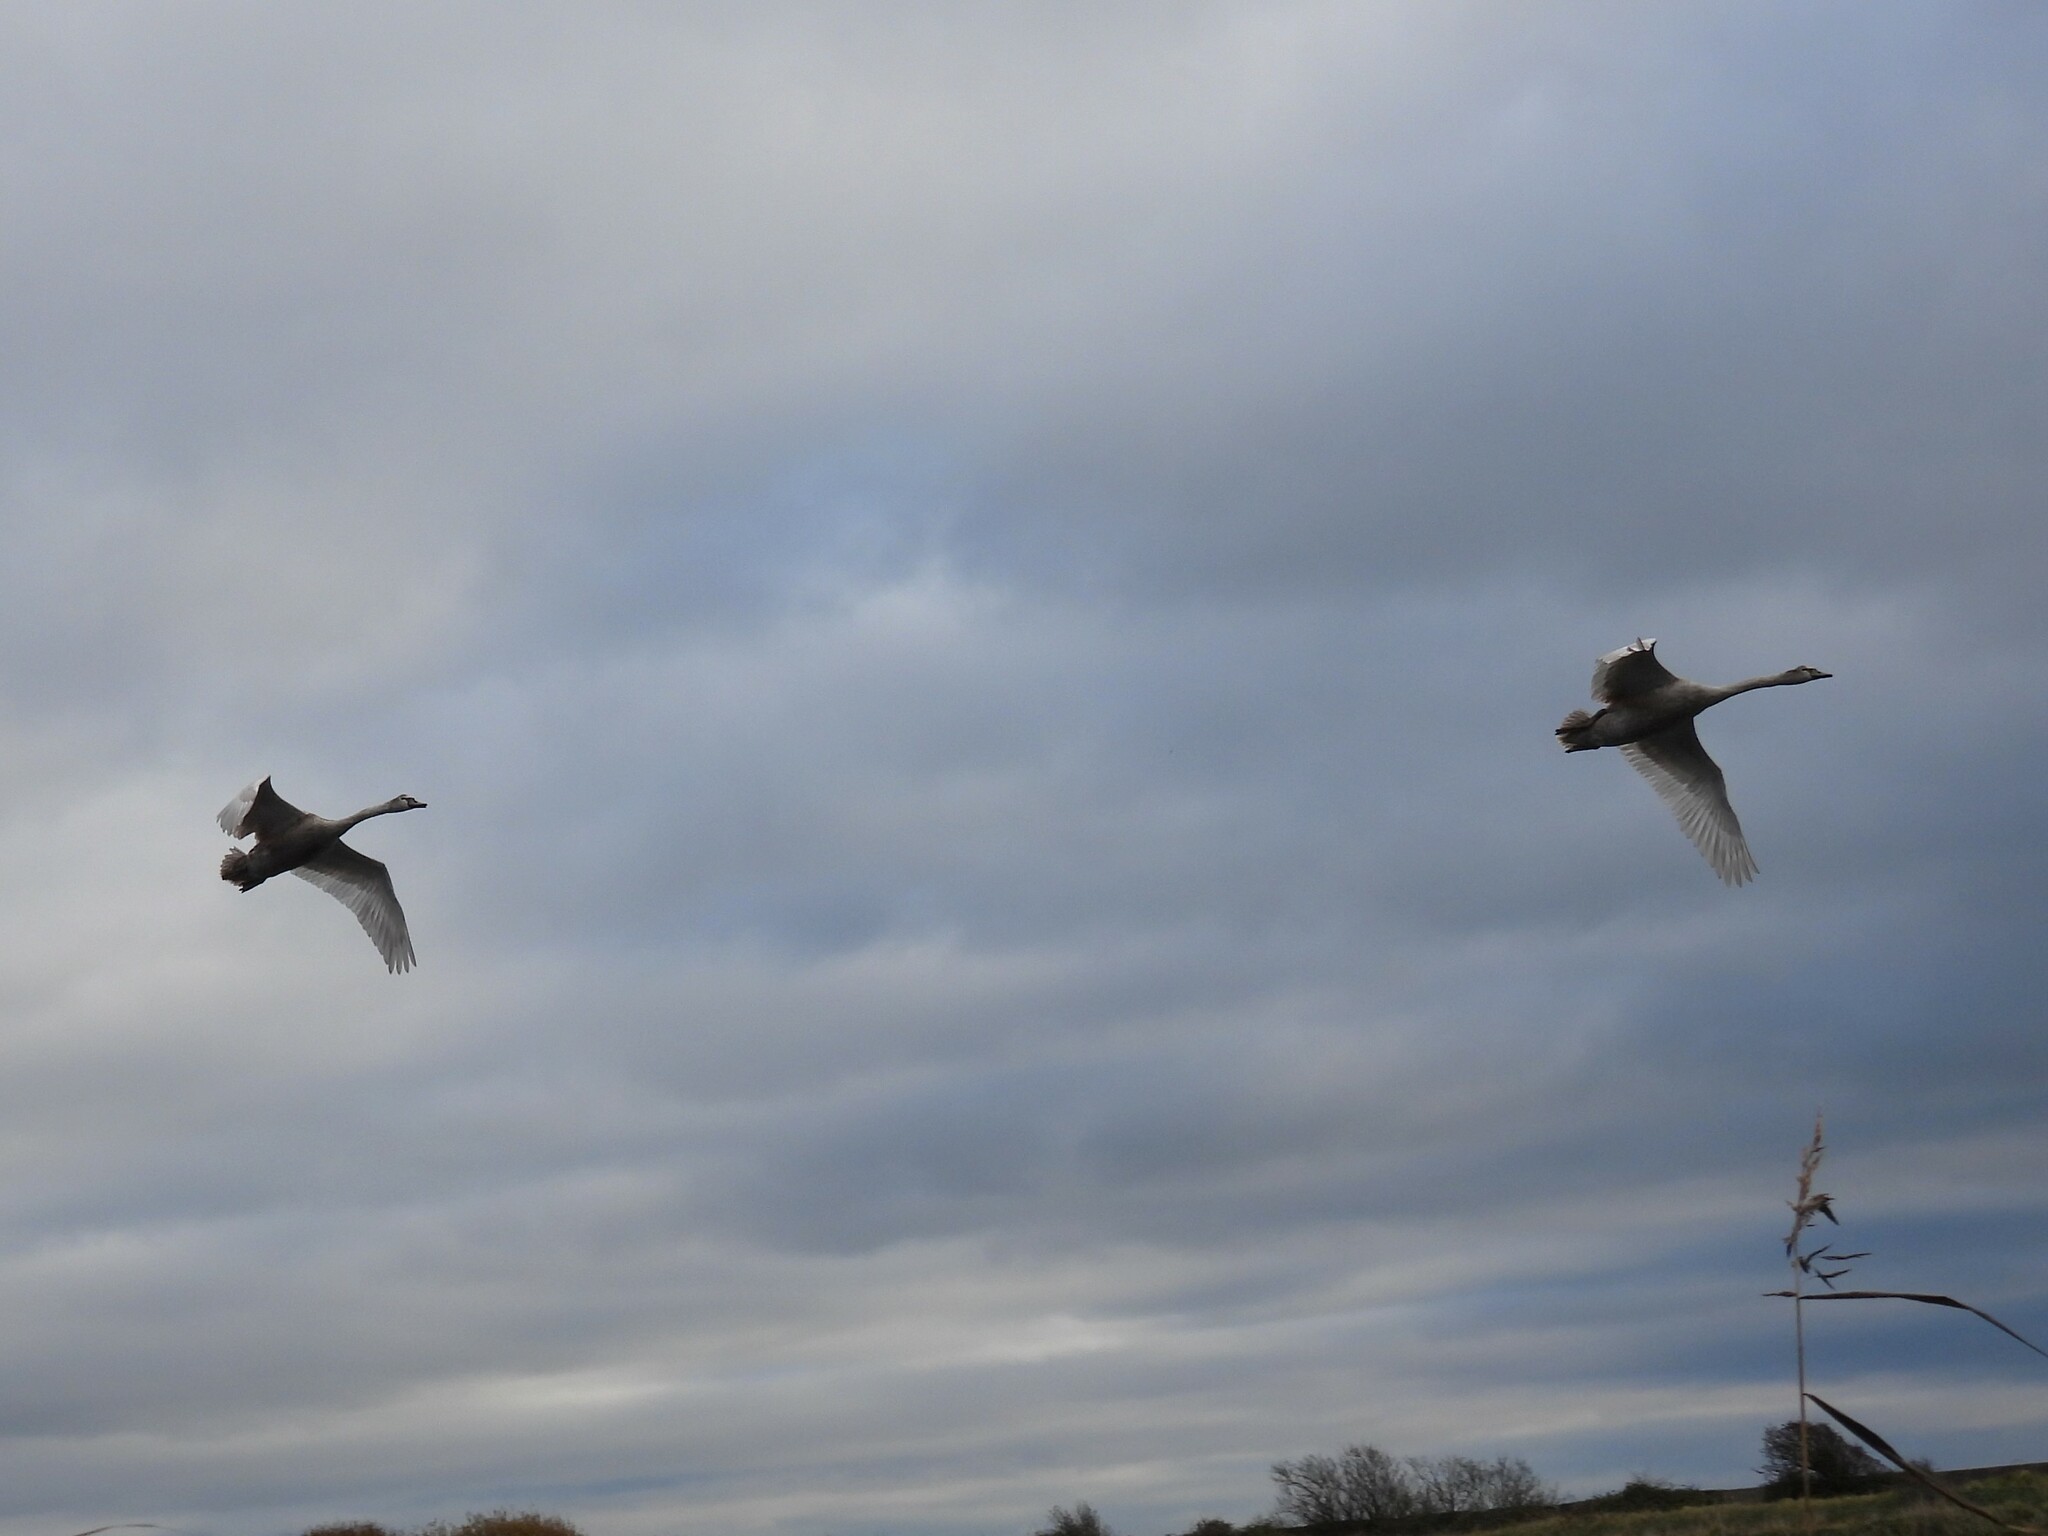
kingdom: Animalia
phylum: Chordata
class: Aves
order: Anseriformes
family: Anatidae
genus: Cygnus
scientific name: Cygnus olor
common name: Mute swan
